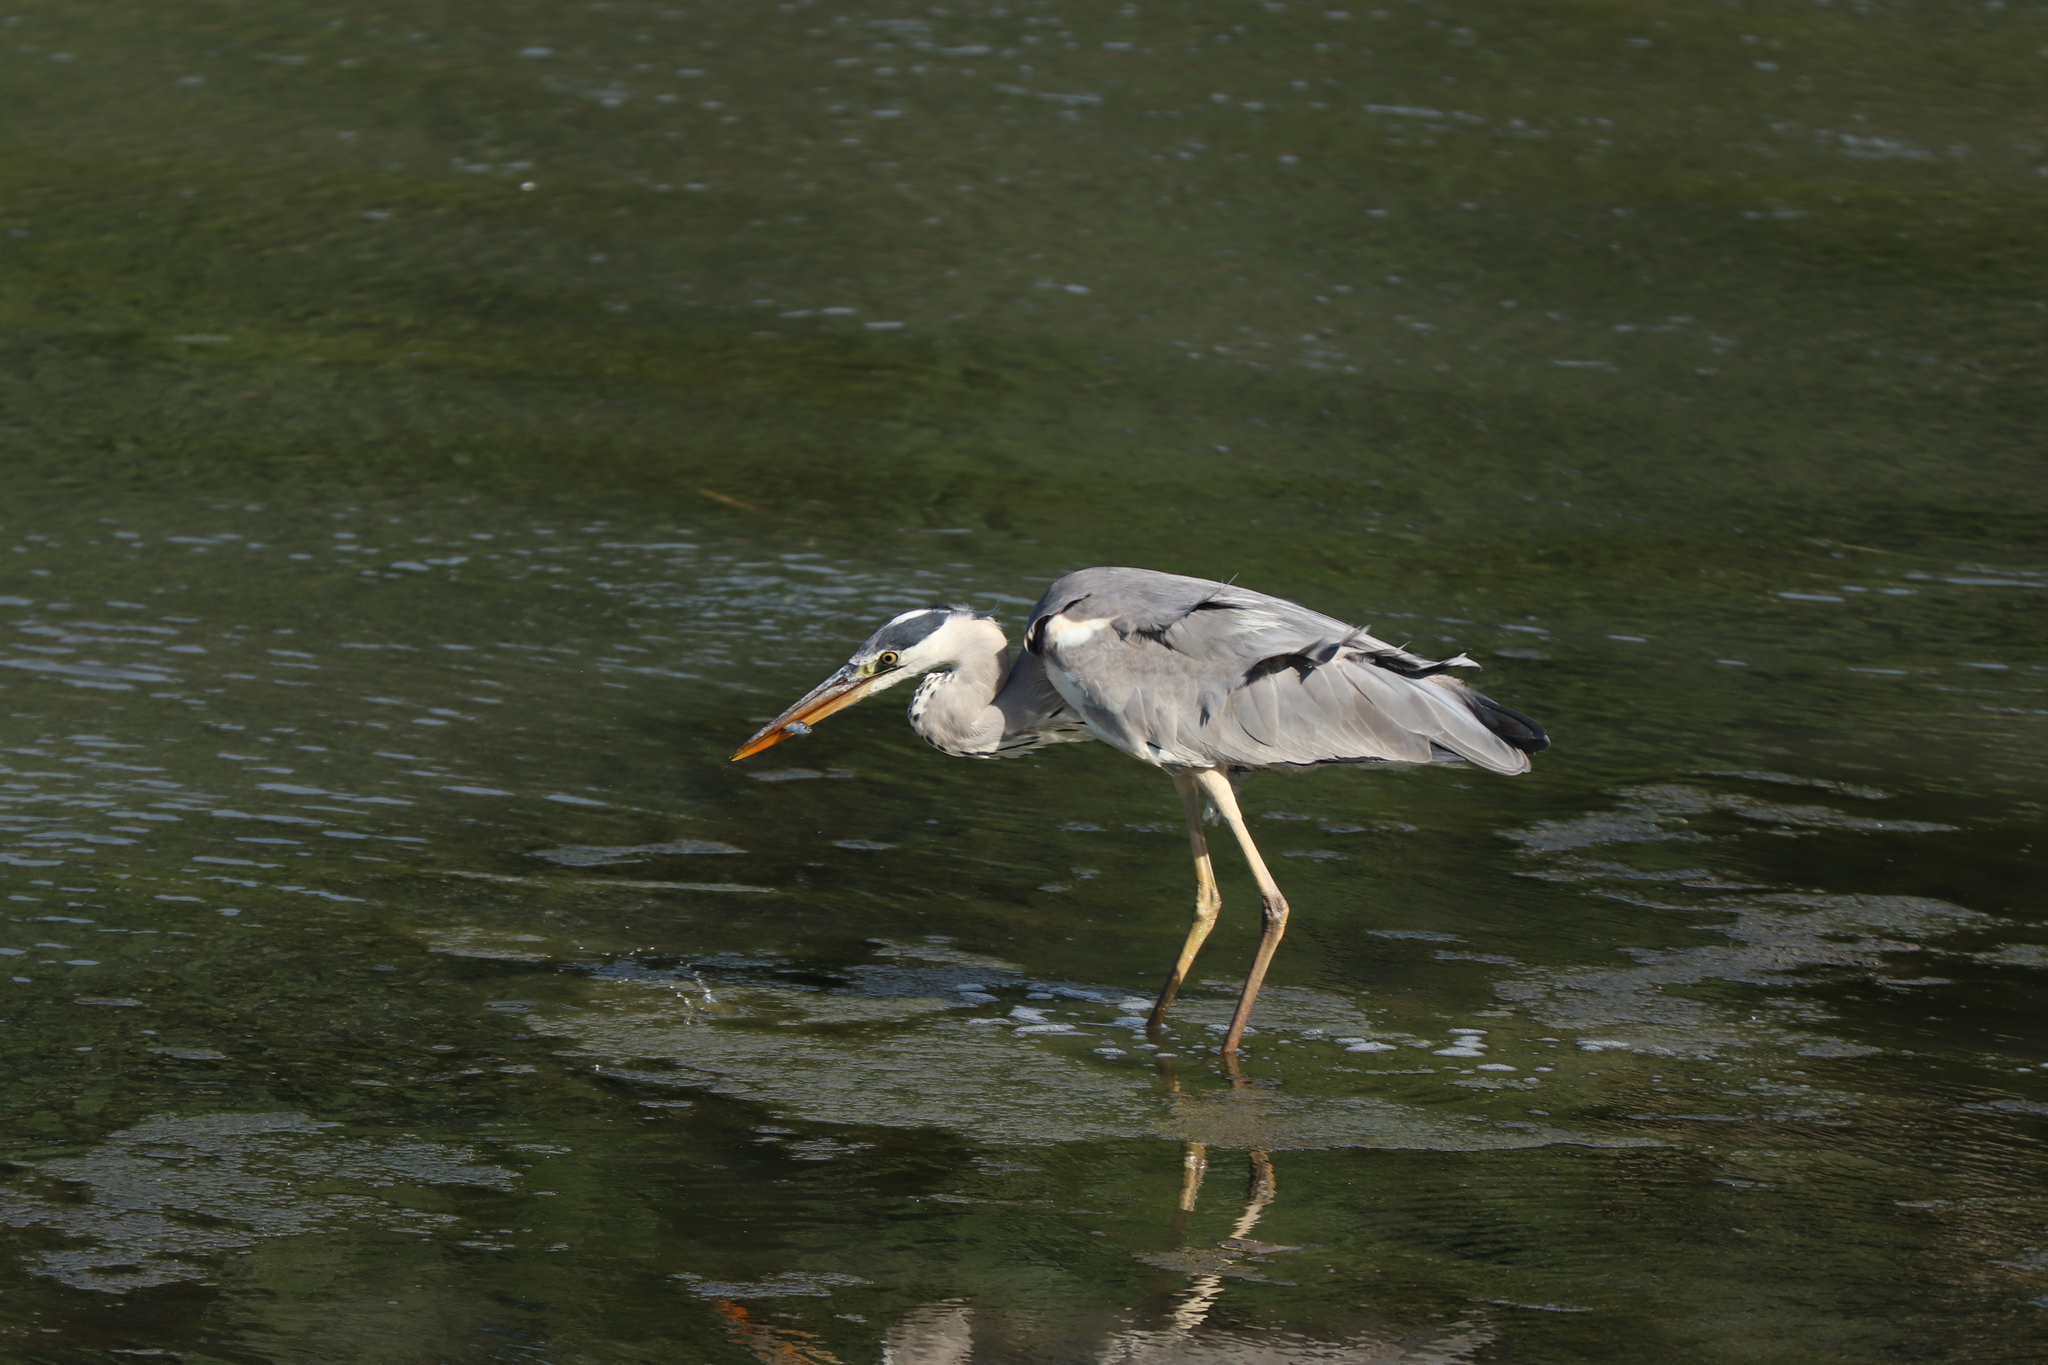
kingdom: Animalia
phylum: Chordata
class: Aves
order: Pelecaniformes
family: Ardeidae
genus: Ardea
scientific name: Ardea cinerea
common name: Grey heron
